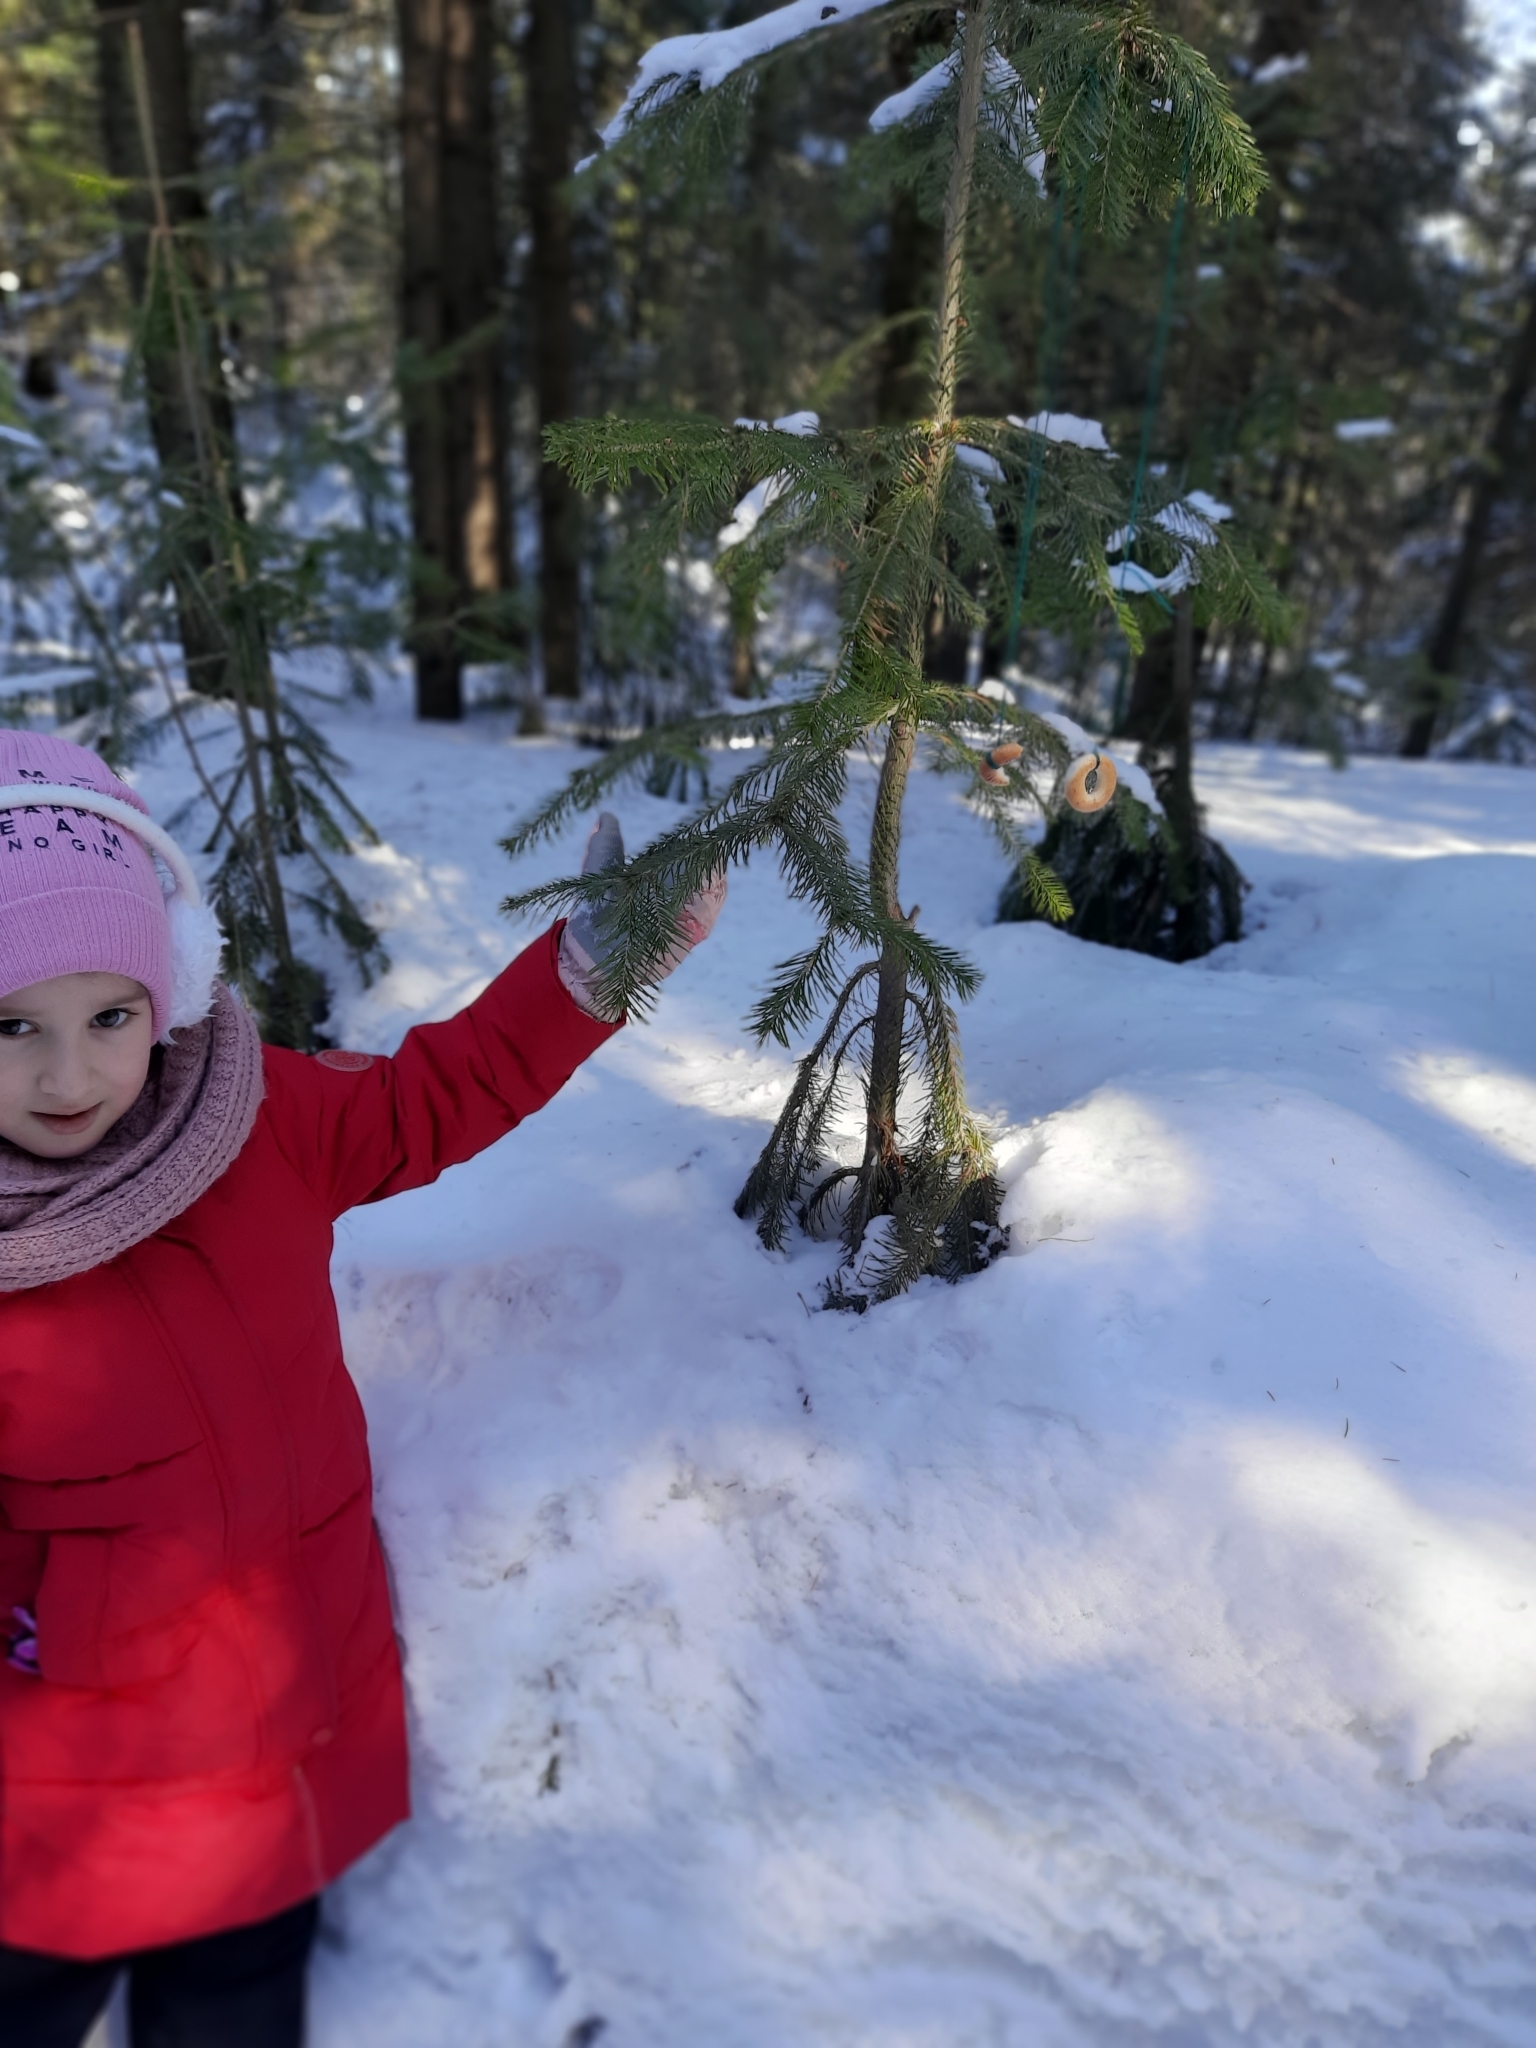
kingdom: Plantae
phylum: Tracheophyta
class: Pinopsida
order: Pinales
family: Pinaceae
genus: Abies
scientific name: Abies sibirica
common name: Siberian fir
